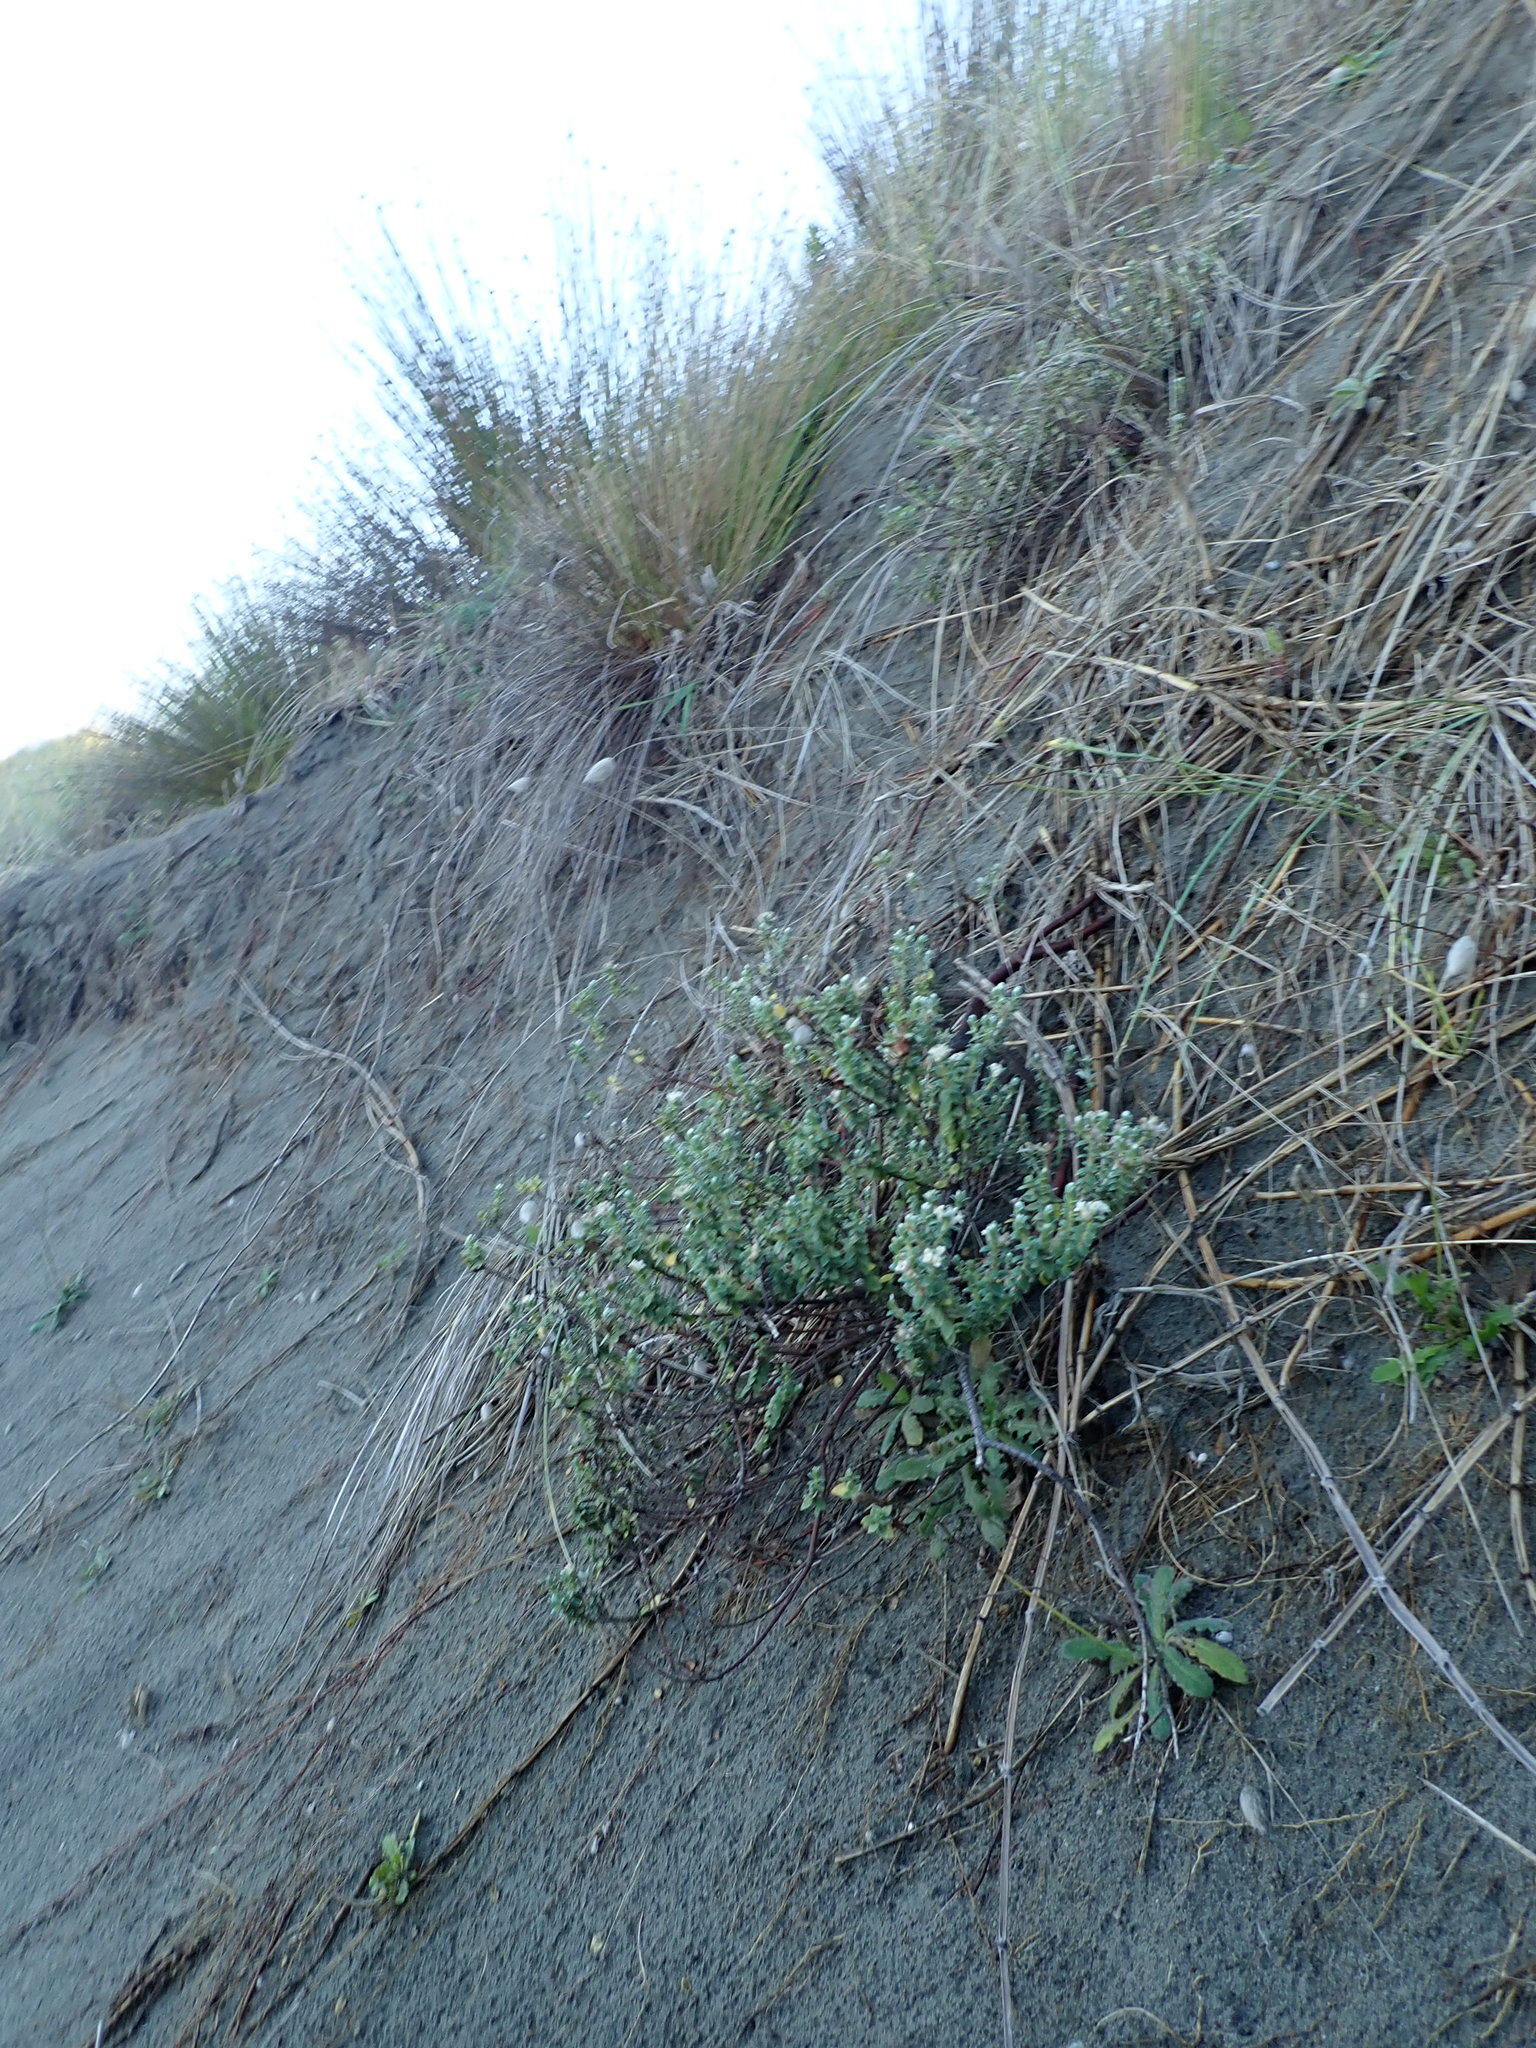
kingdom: Plantae
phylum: Tracheophyta
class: Magnoliopsida
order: Malvales
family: Thymelaeaceae
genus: Pimelea
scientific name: Pimelea villosa
